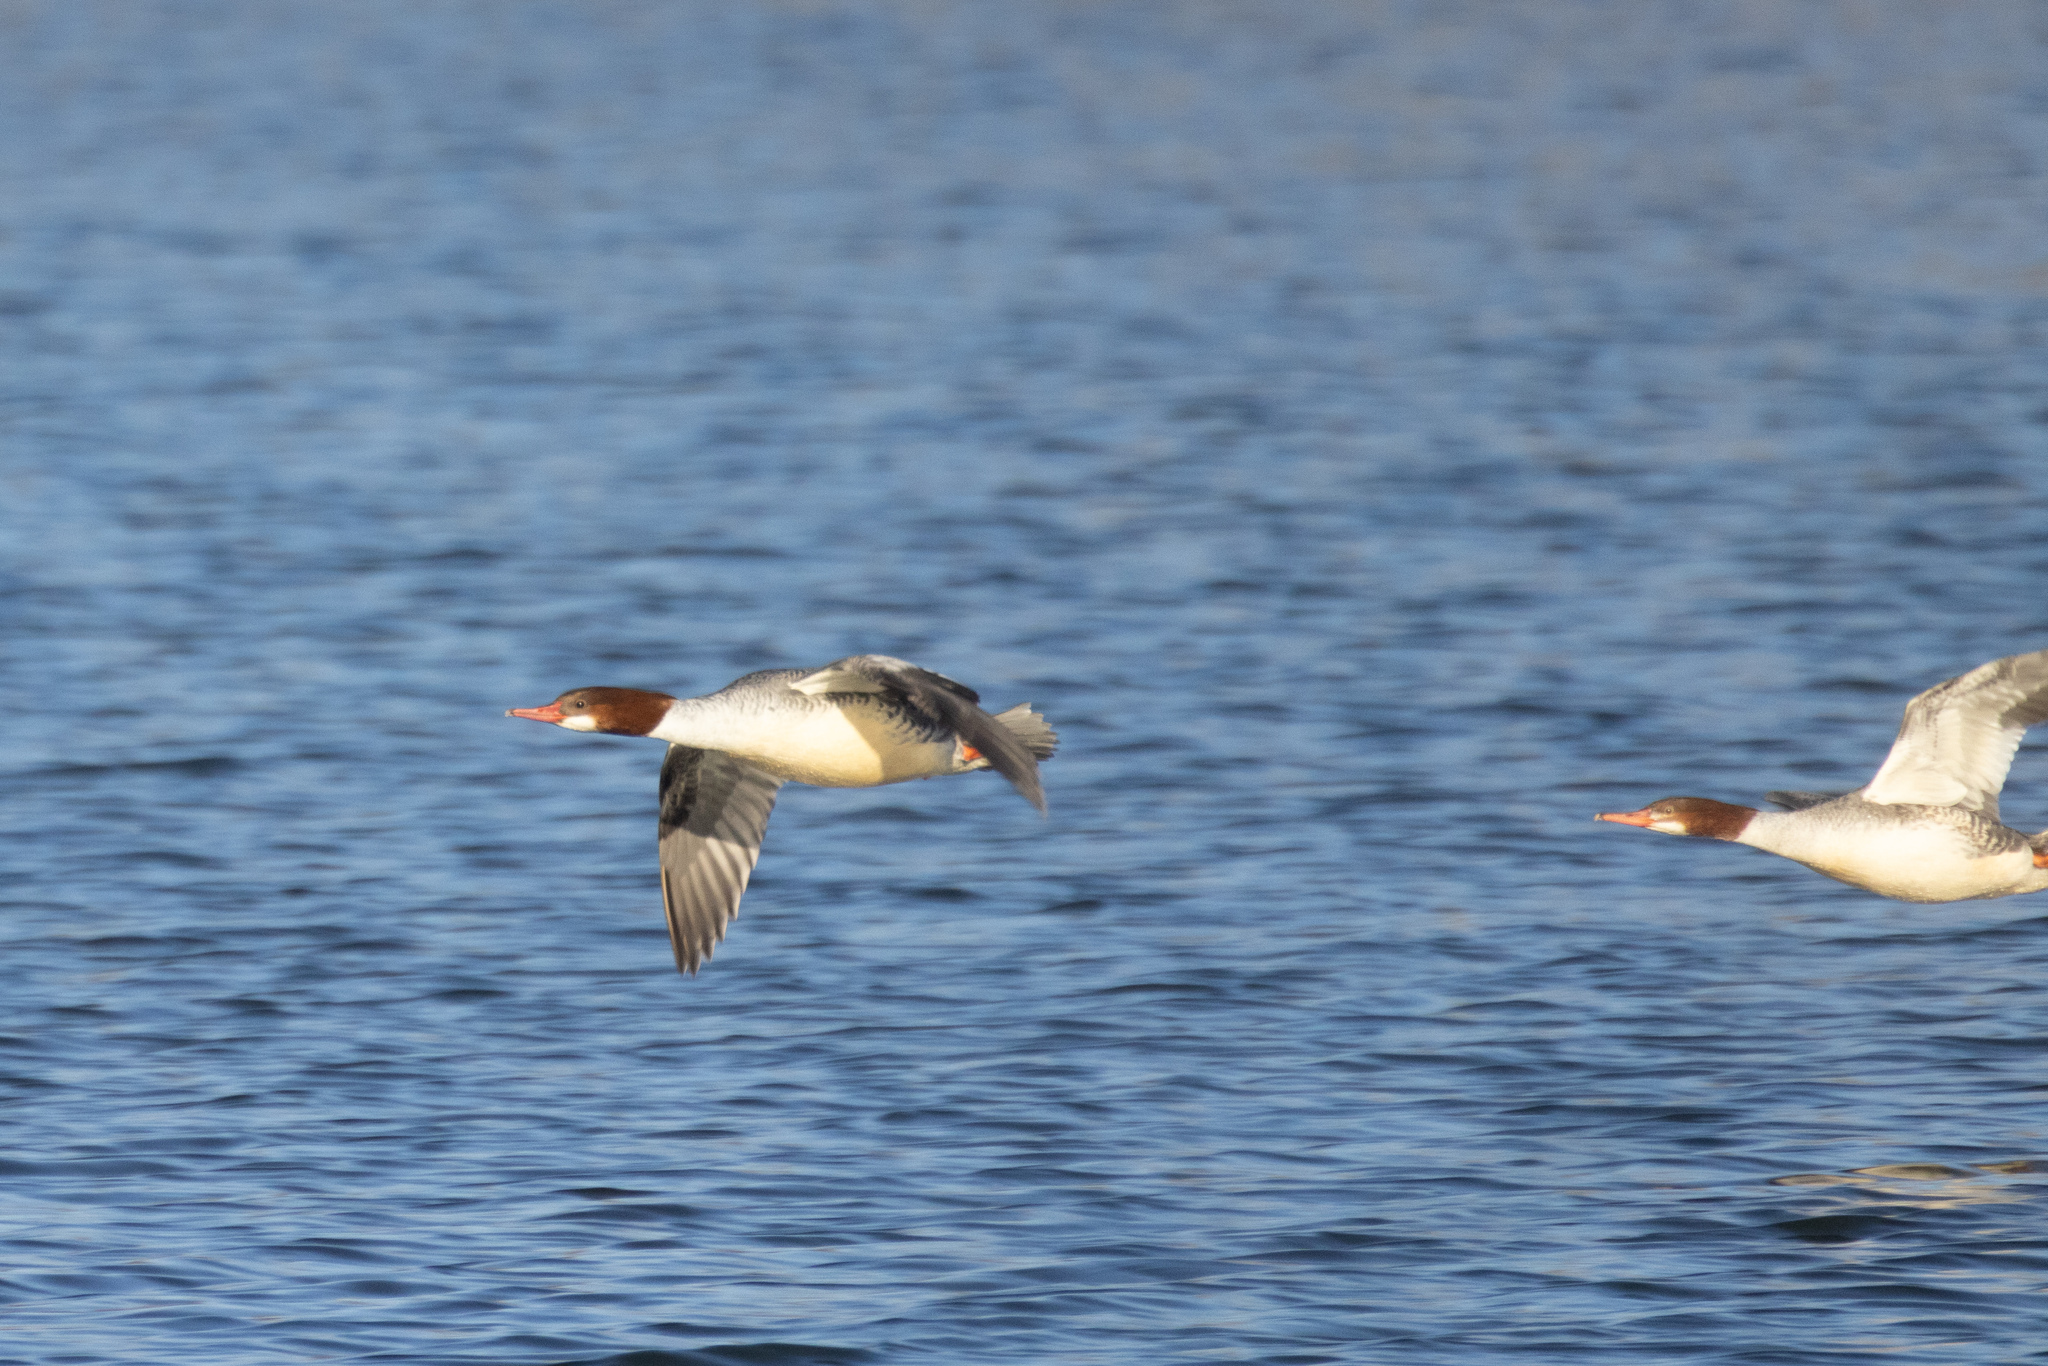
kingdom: Animalia
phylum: Chordata
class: Aves
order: Anseriformes
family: Anatidae
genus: Mergus
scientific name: Mergus merganser
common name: Common merganser
